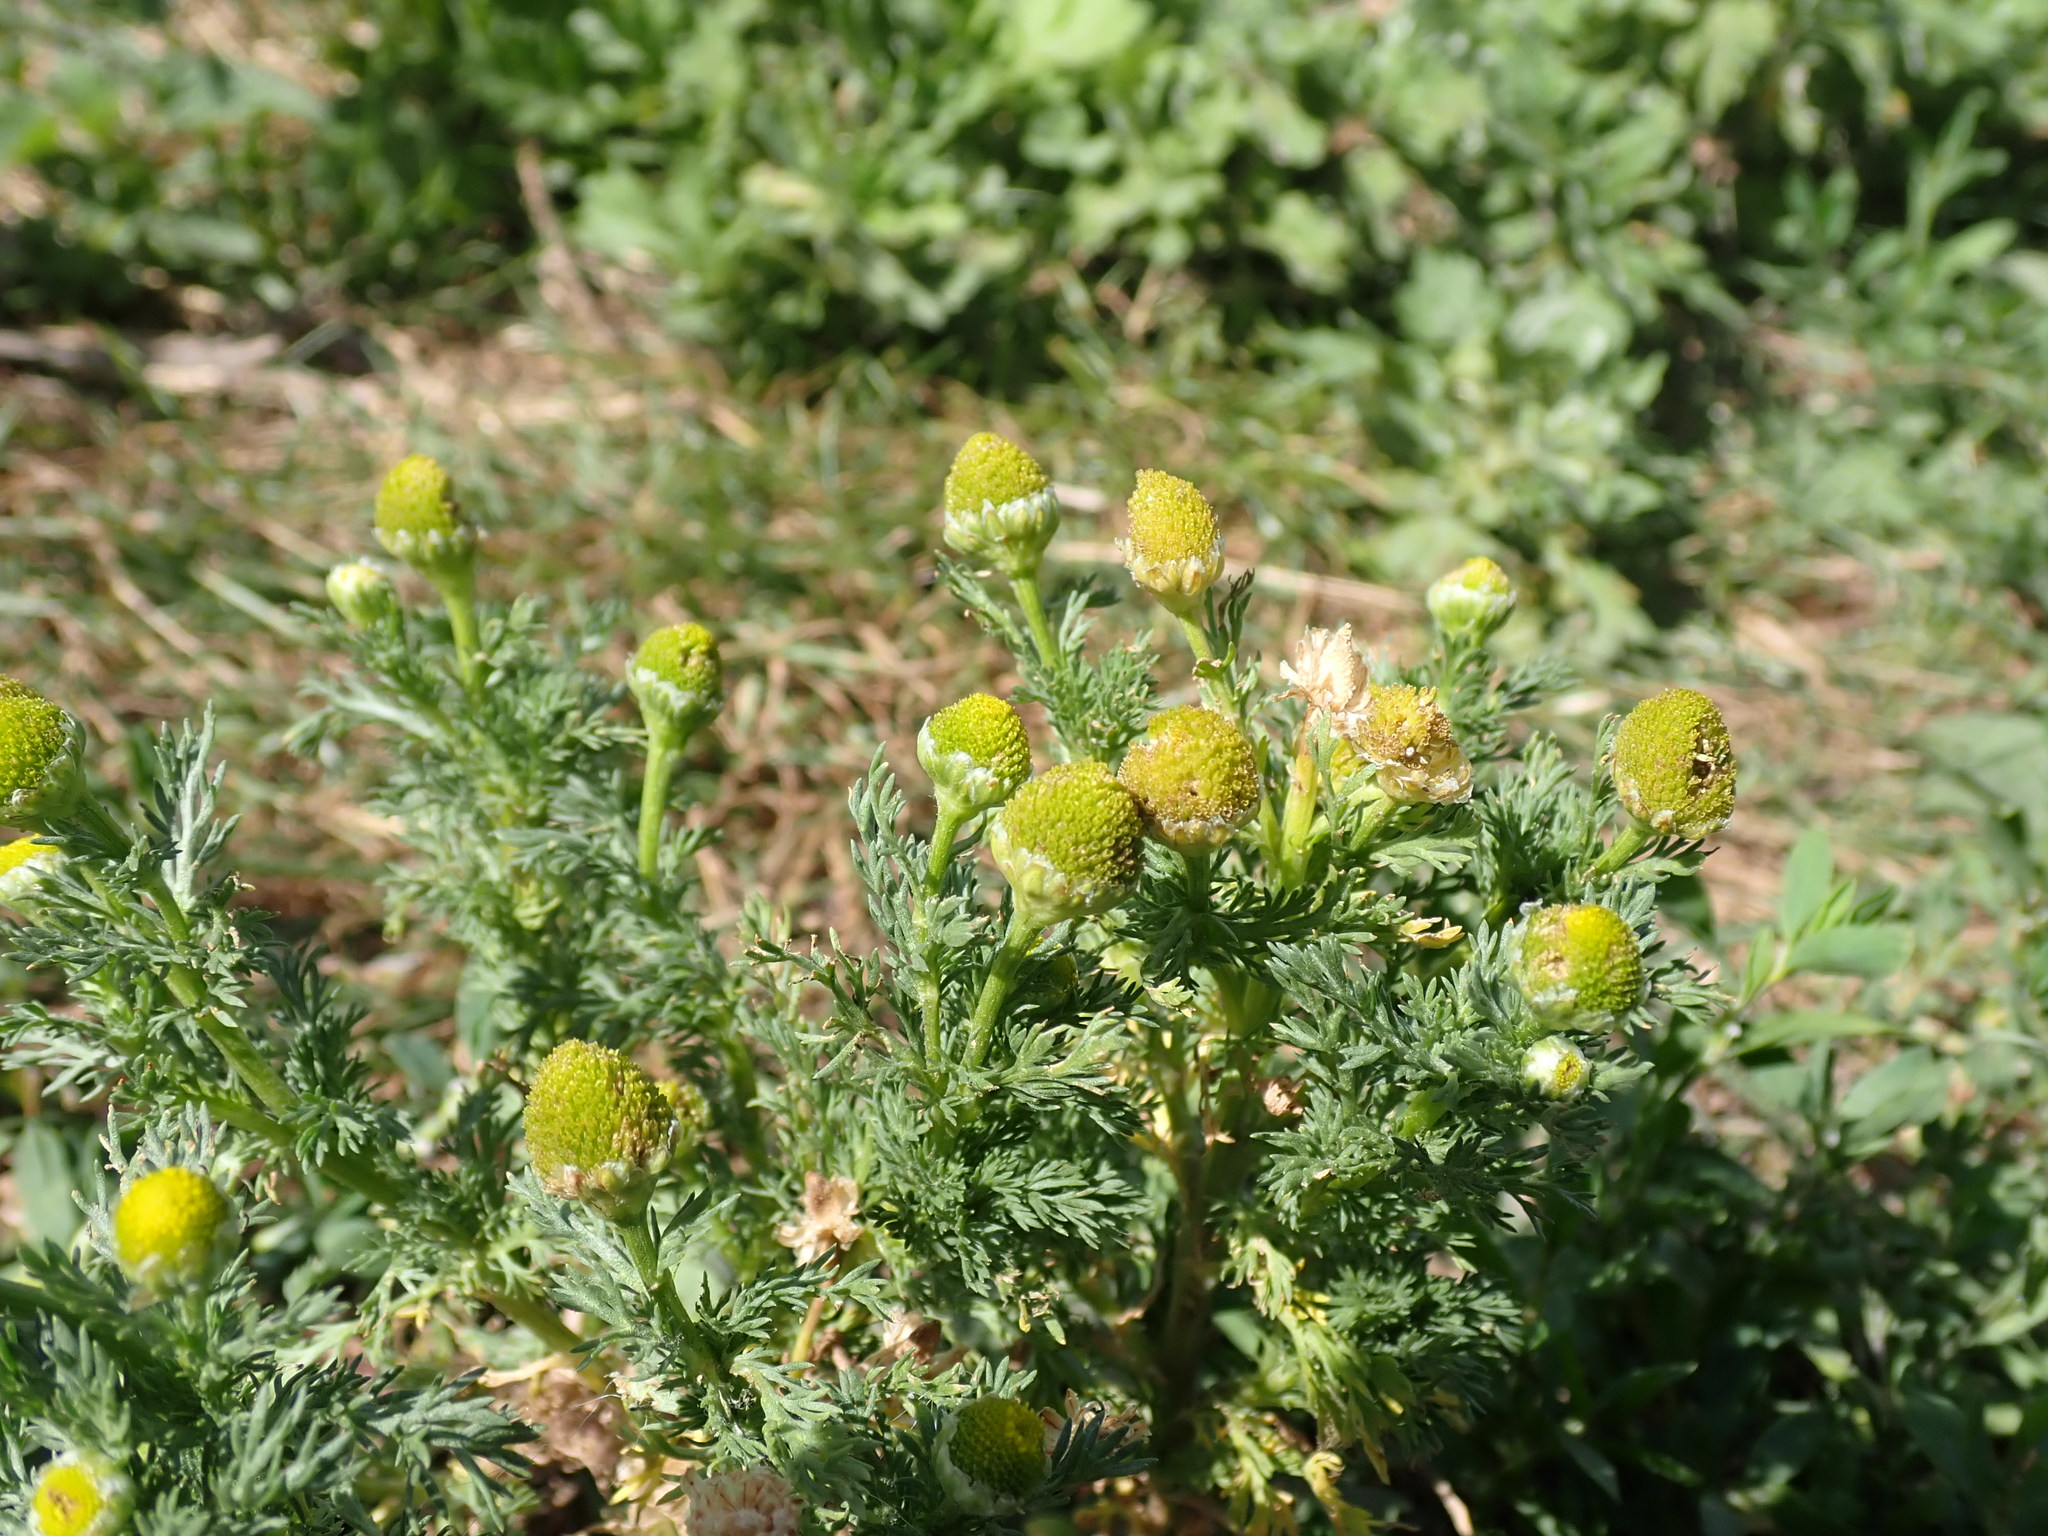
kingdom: Plantae
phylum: Tracheophyta
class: Magnoliopsida
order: Asterales
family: Asteraceae
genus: Matricaria
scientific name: Matricaria discoidea
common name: Disc mayweed
